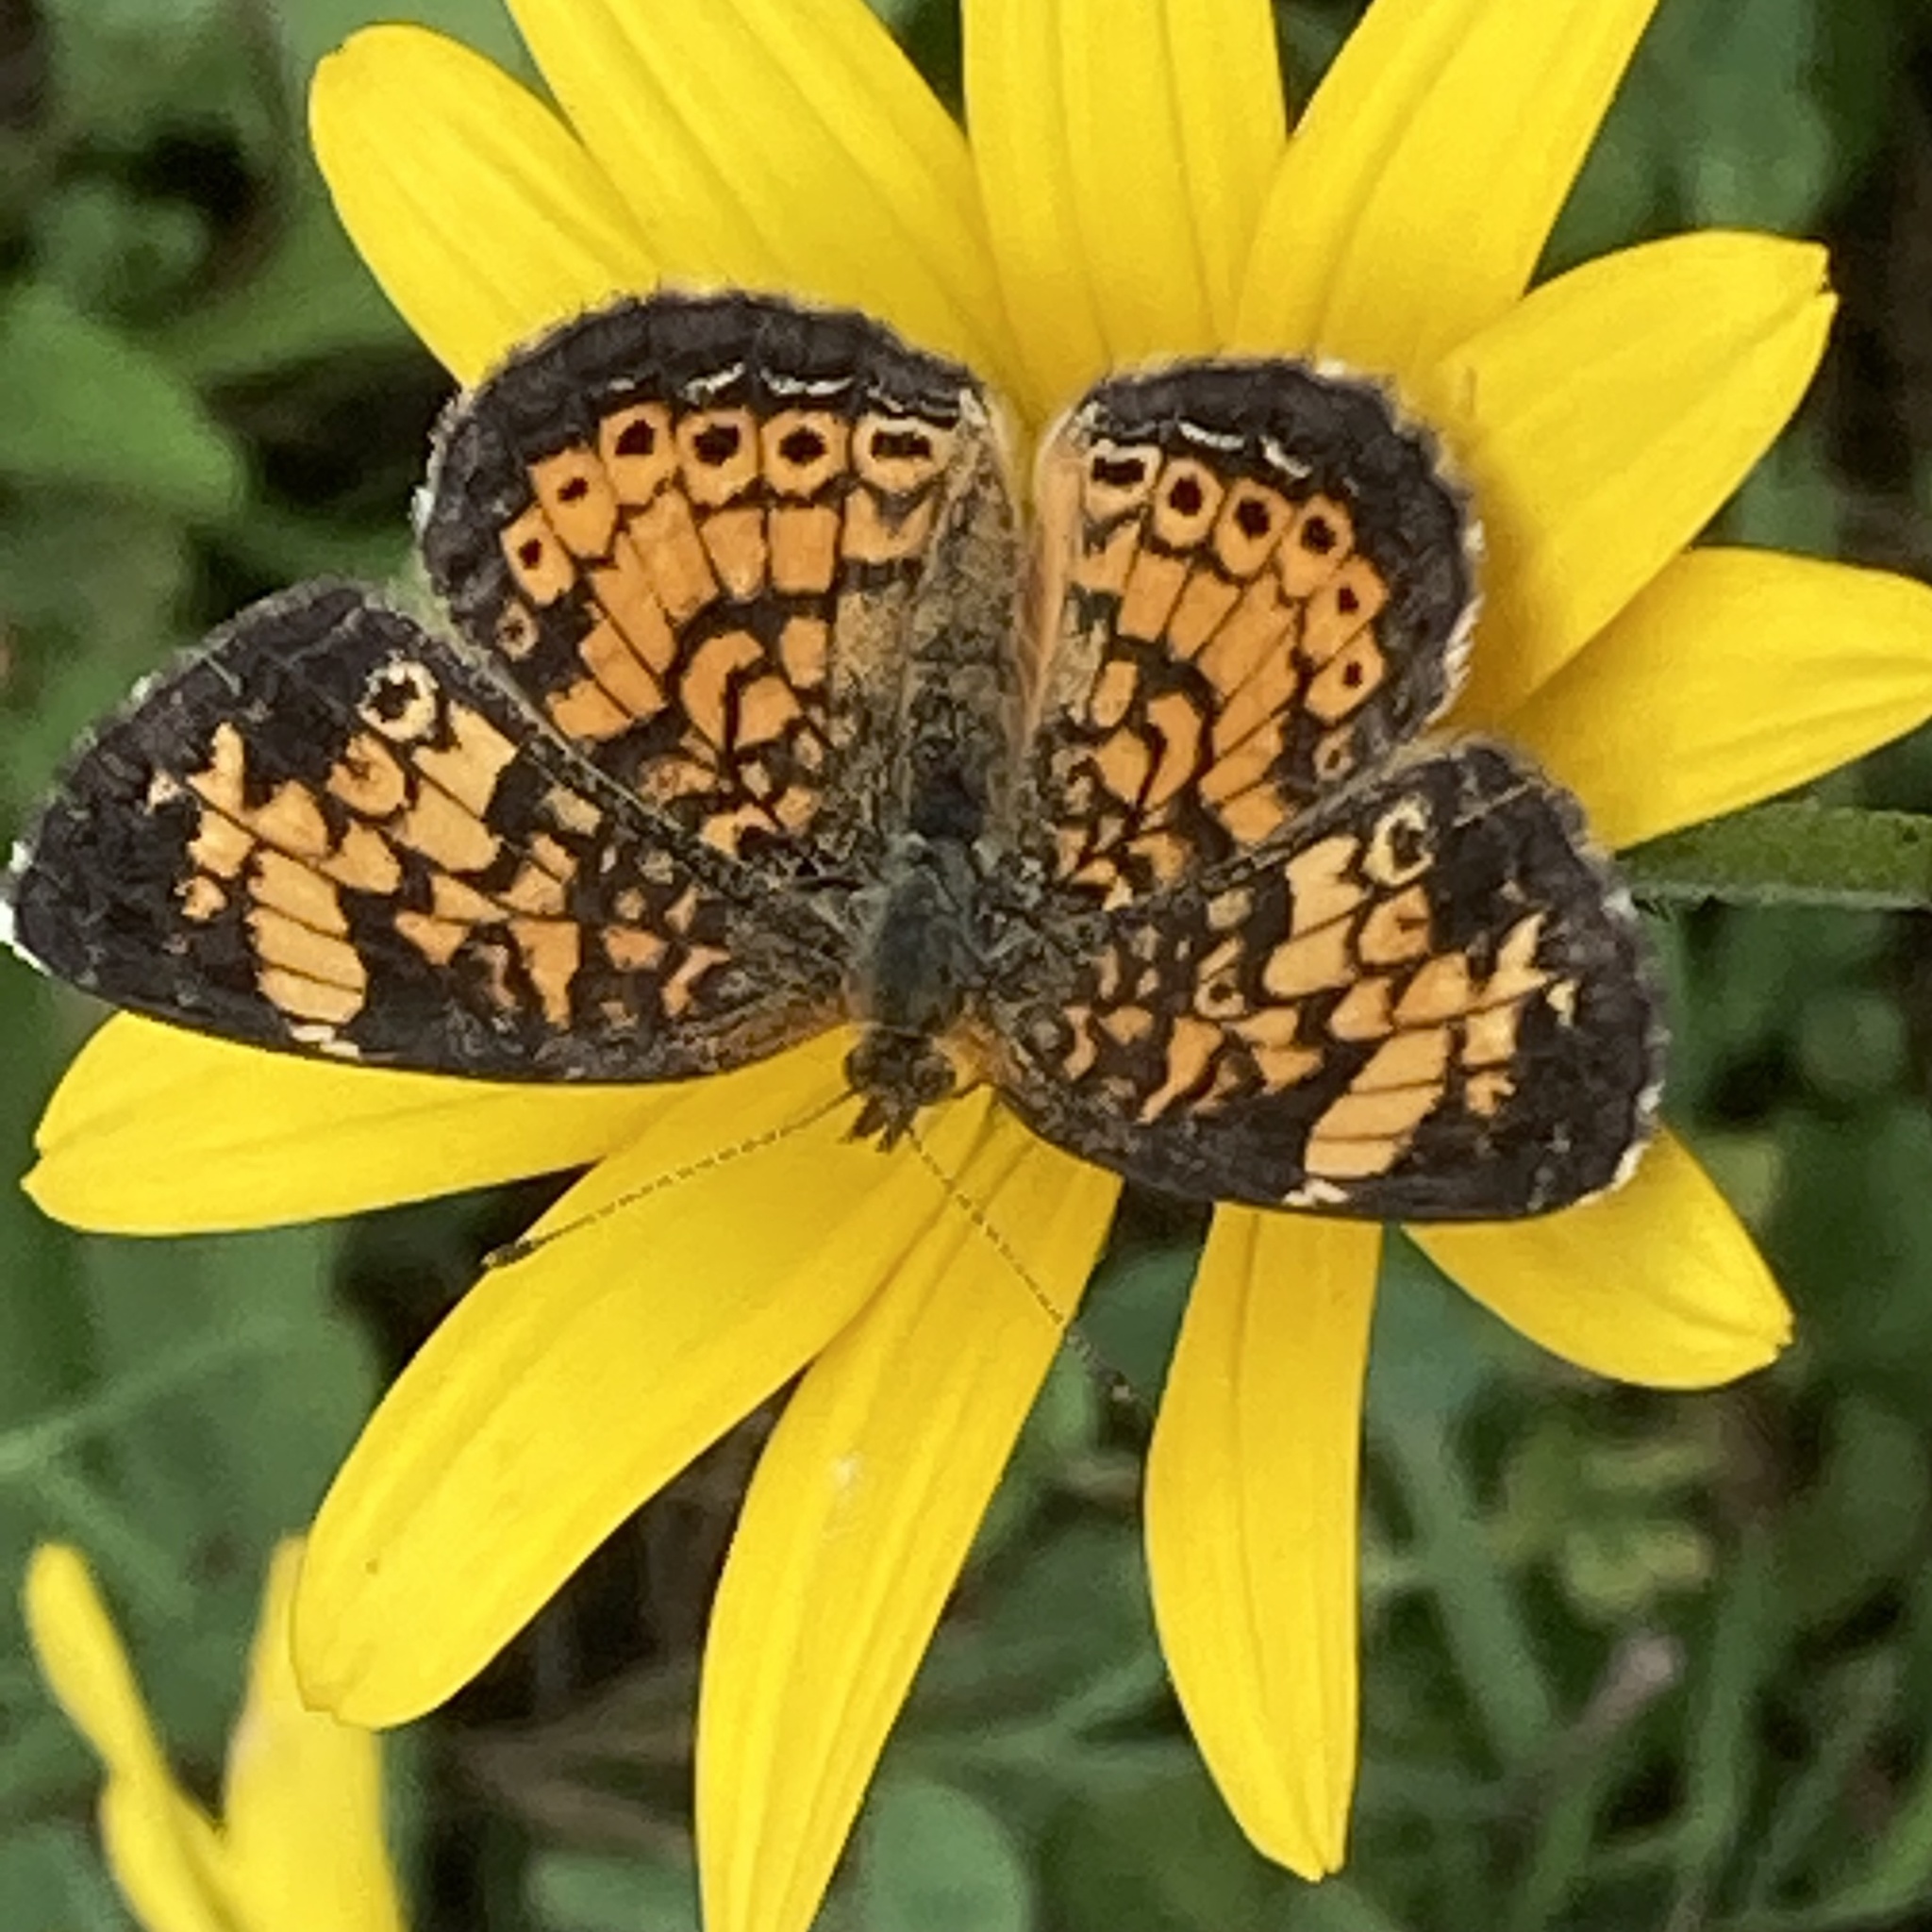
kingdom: Animalia
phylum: Arthropoda
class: Insecta
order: Lepidoptera
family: Nymphalidae
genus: Phyciodes
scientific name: Phyciodes tharos
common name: Pearl crescent
